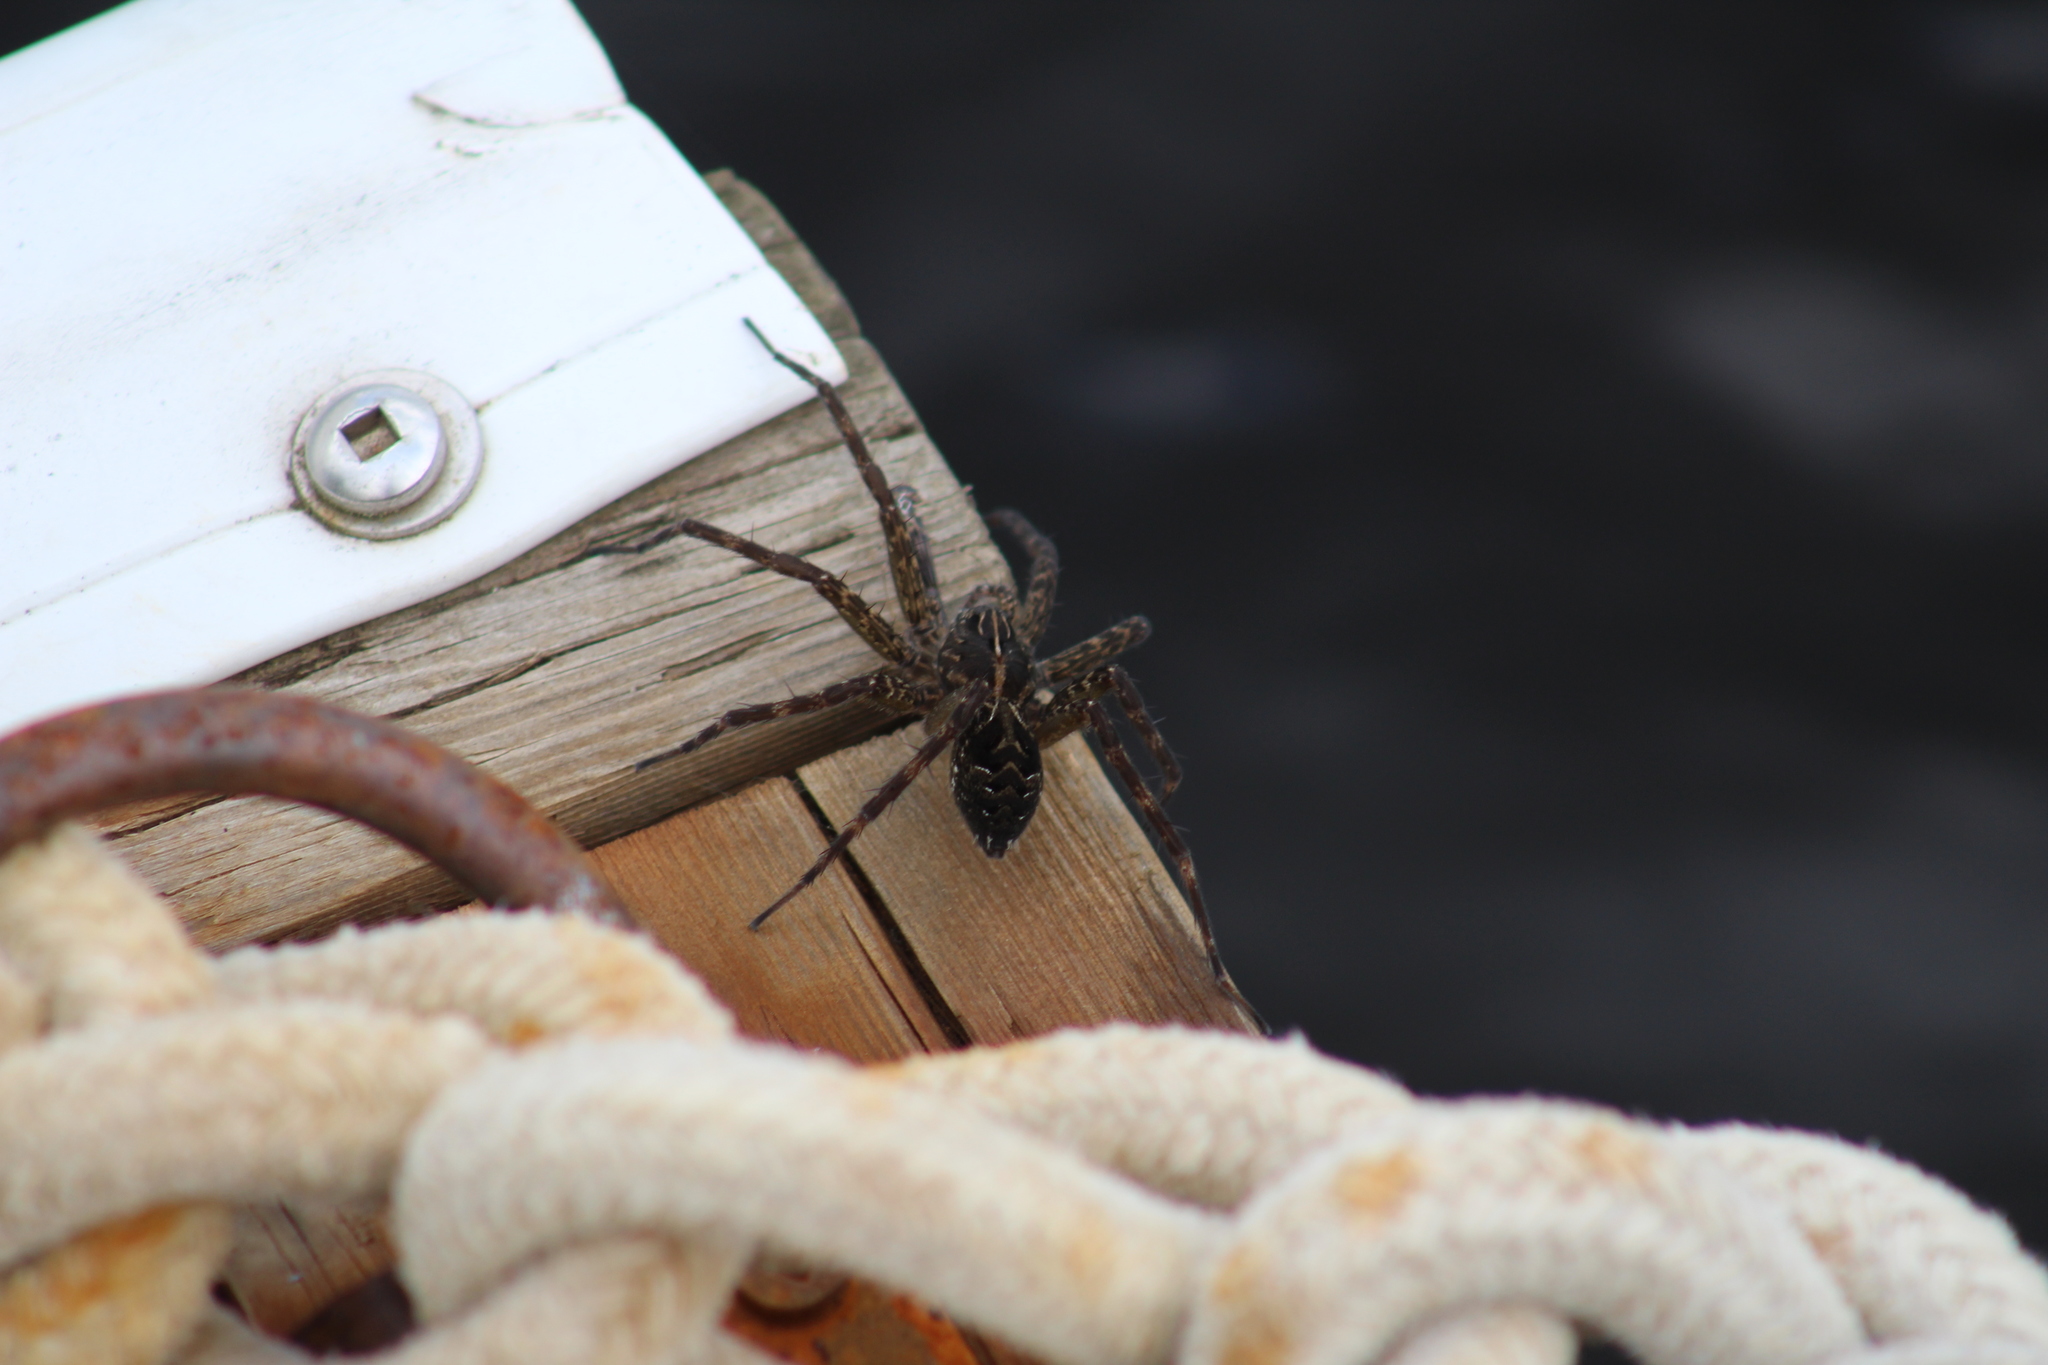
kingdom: Animalia
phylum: Arthropoda
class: Arachnida
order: Araneae
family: Pisauridae
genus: Dolomedes
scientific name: Dolomedes scriptus
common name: Striped fishing spider
